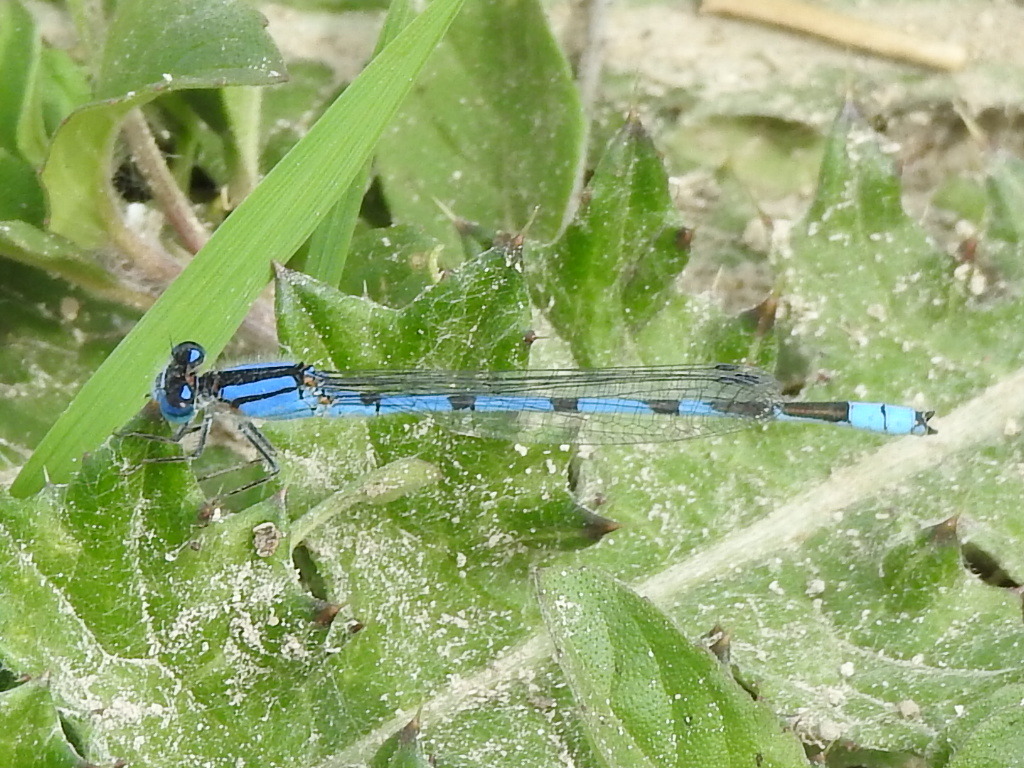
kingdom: Animalia
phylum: Arthropoda
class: Insecta
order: Odonata
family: Coenagrionidae
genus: Enallagma
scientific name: Enallagma civile
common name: Damselfly
